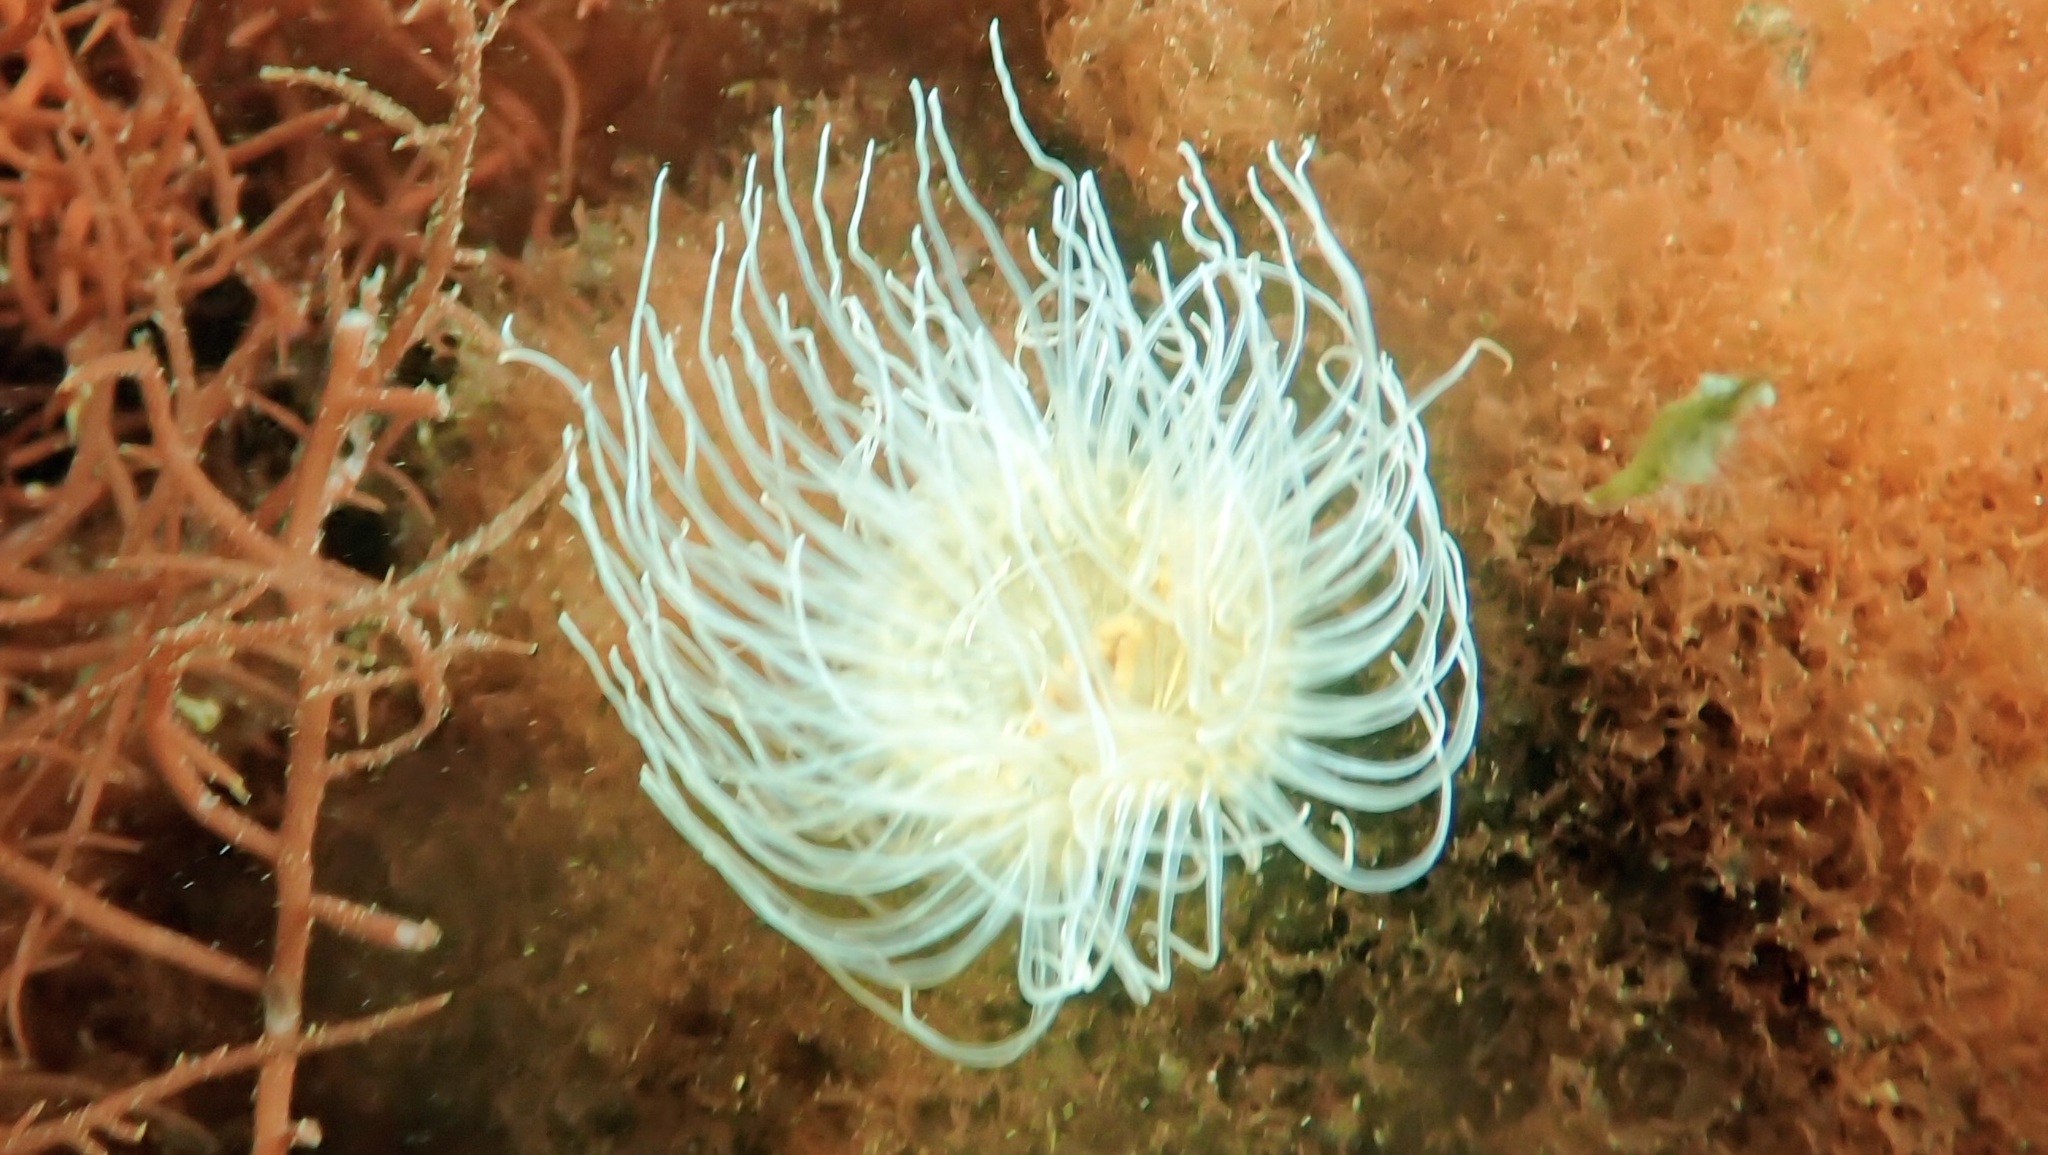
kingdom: Animalia
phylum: Cnidaria
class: Anthozoa
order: Actiniaria
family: Sagartiidae
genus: Sagartia
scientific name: Sagartia undata
